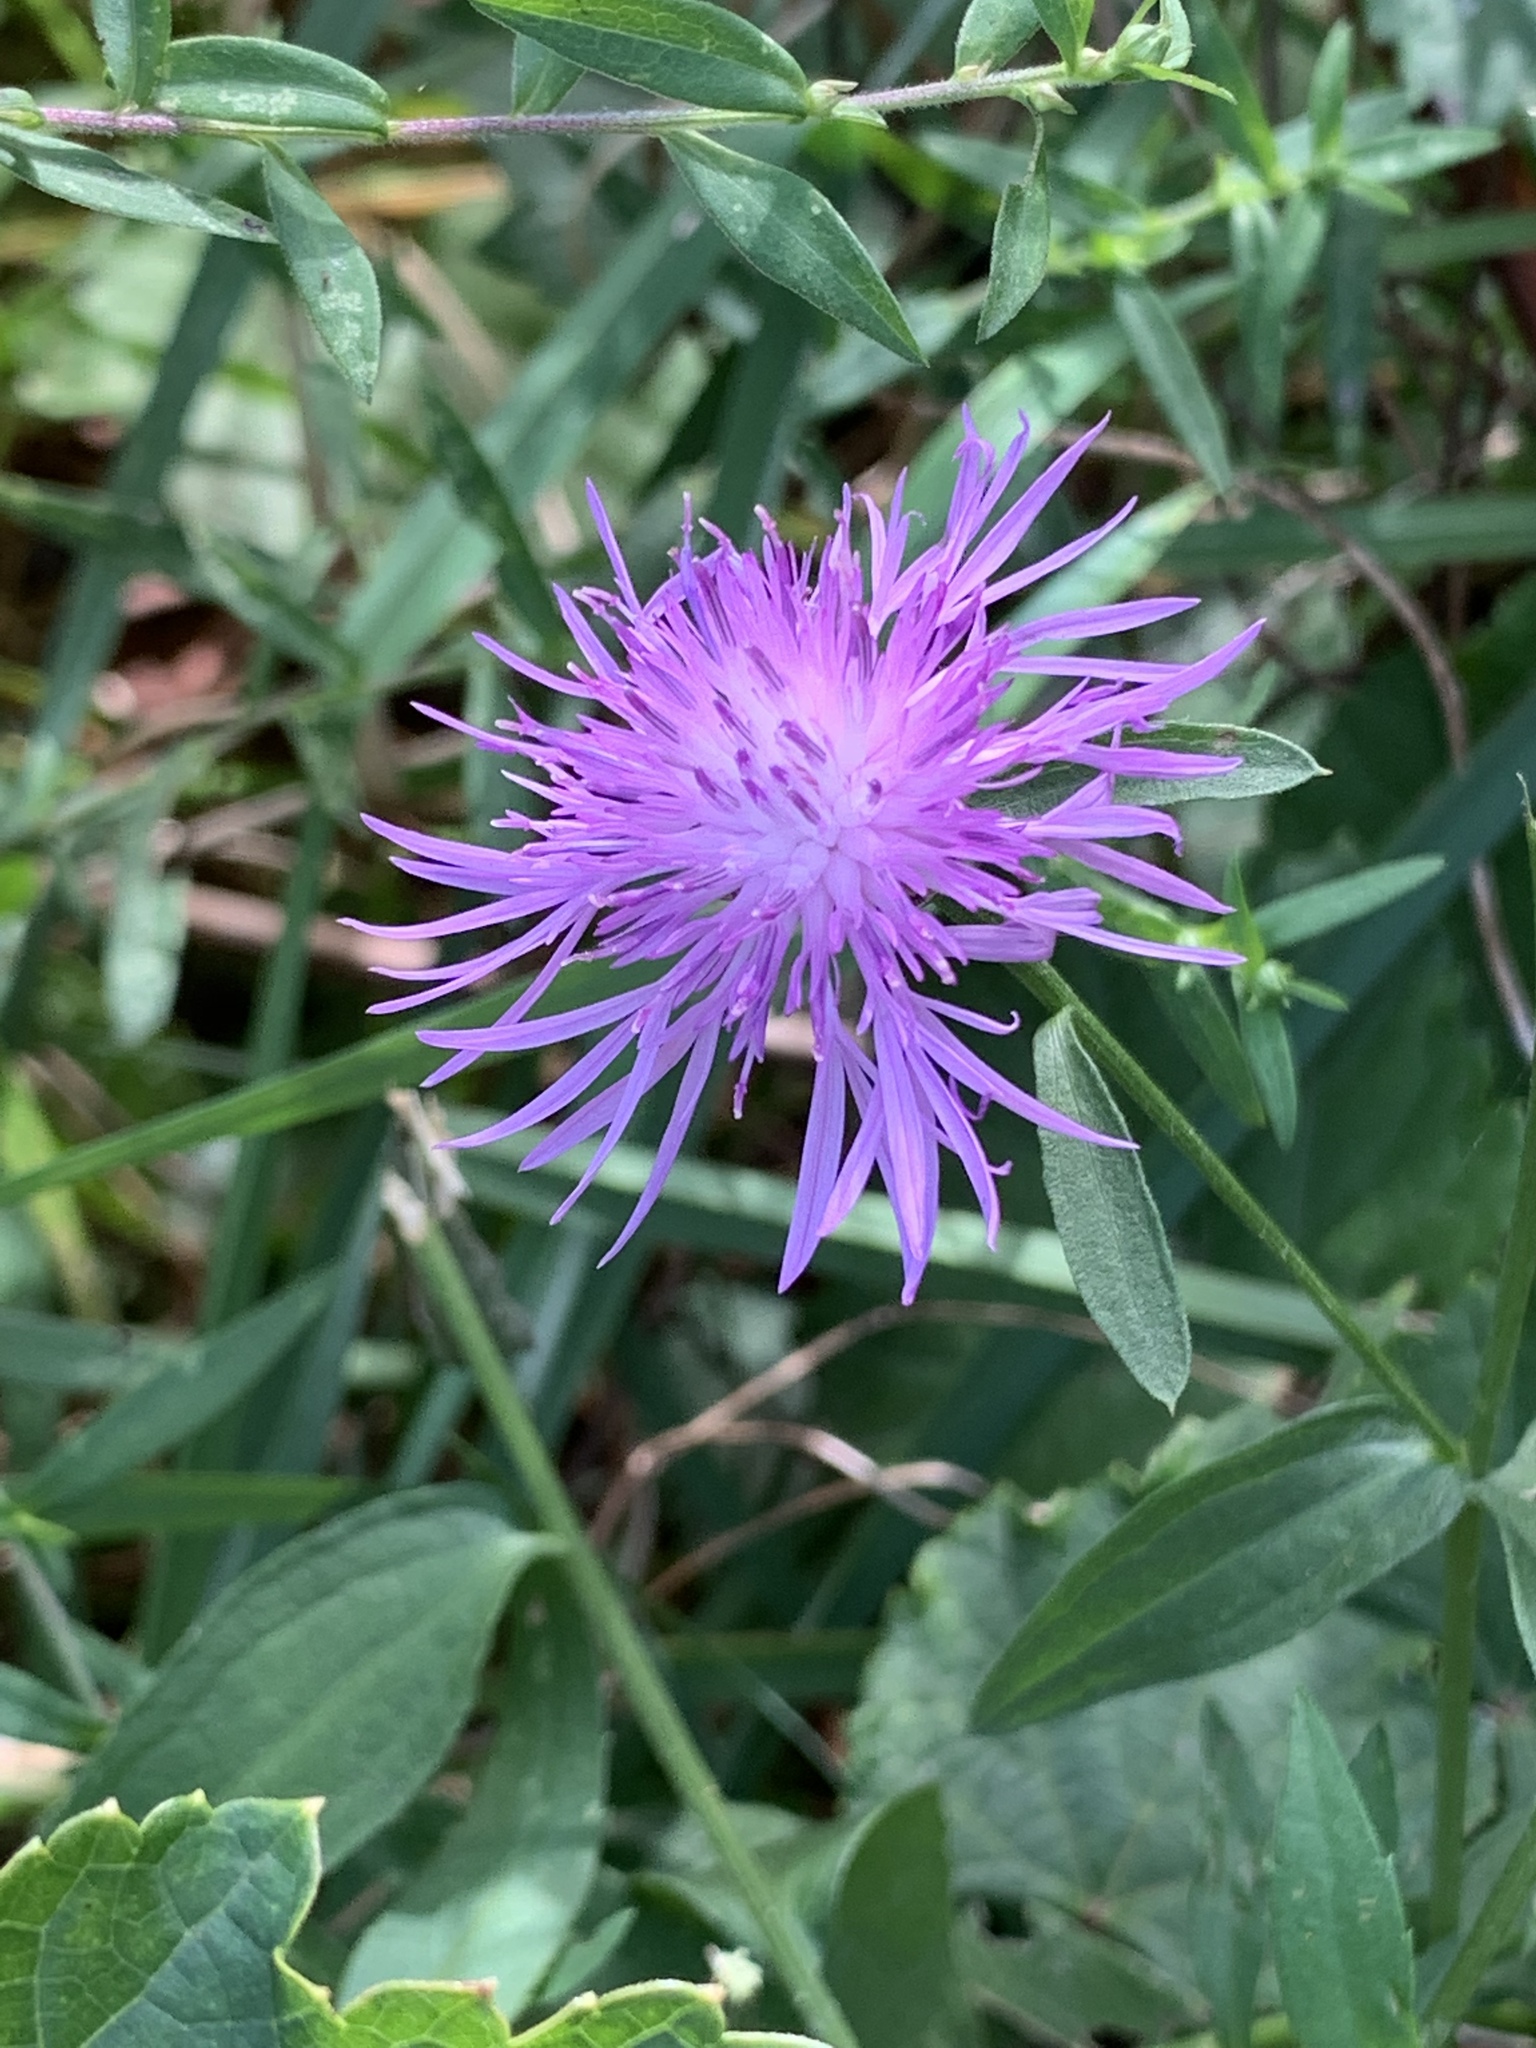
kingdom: Plantae
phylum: Tracheophyta
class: Magnoliopsida
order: Asterales
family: Asteraceae
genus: Centaurea
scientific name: Centaurea nigrescens
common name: Tyrol knapweed
